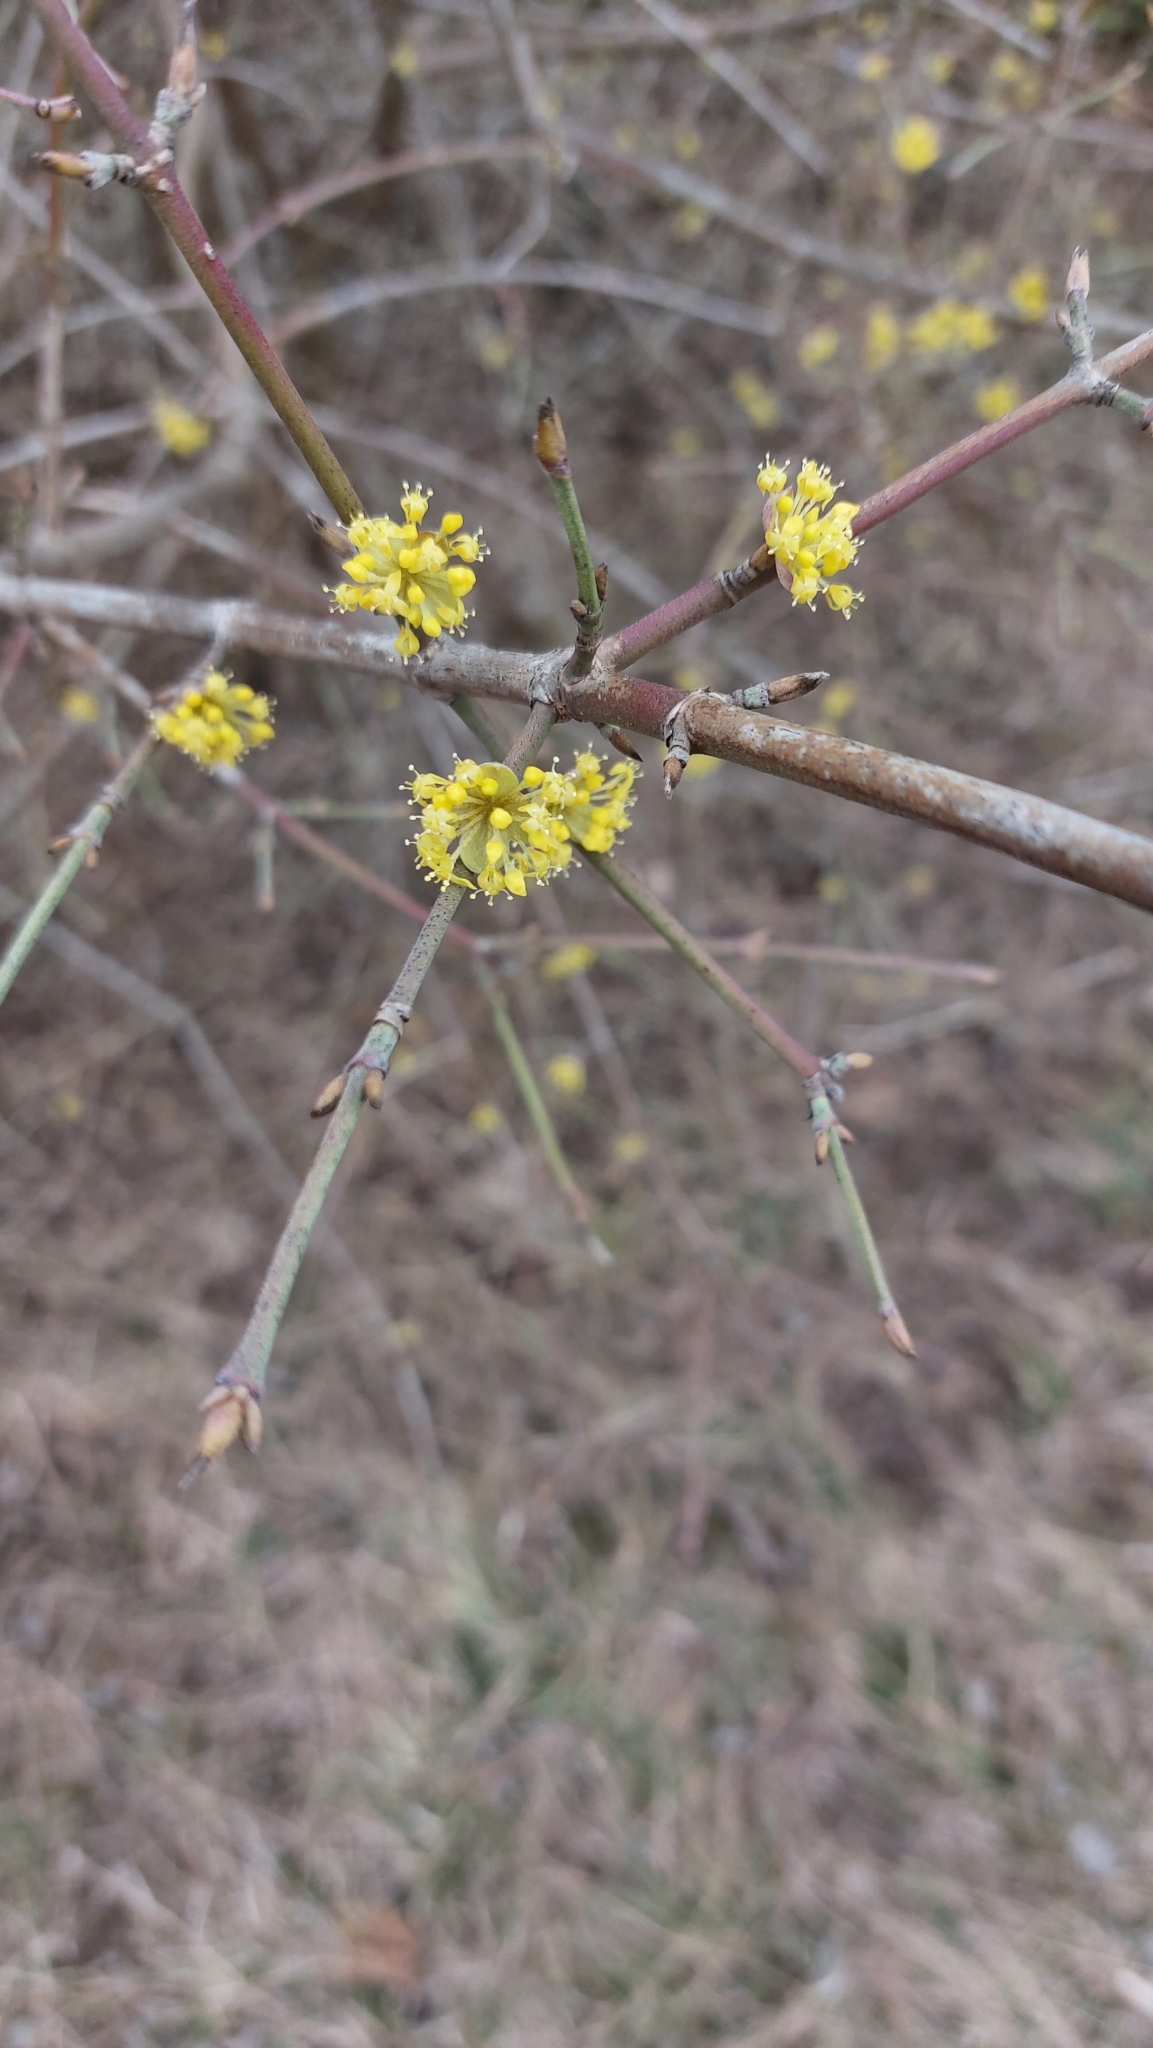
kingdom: Plantae
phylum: Tracheophyta
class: Magnoliopsida
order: Cornales
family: Cornaceae
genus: Cornus
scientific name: Cornus mas
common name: Cornelian-cherry
